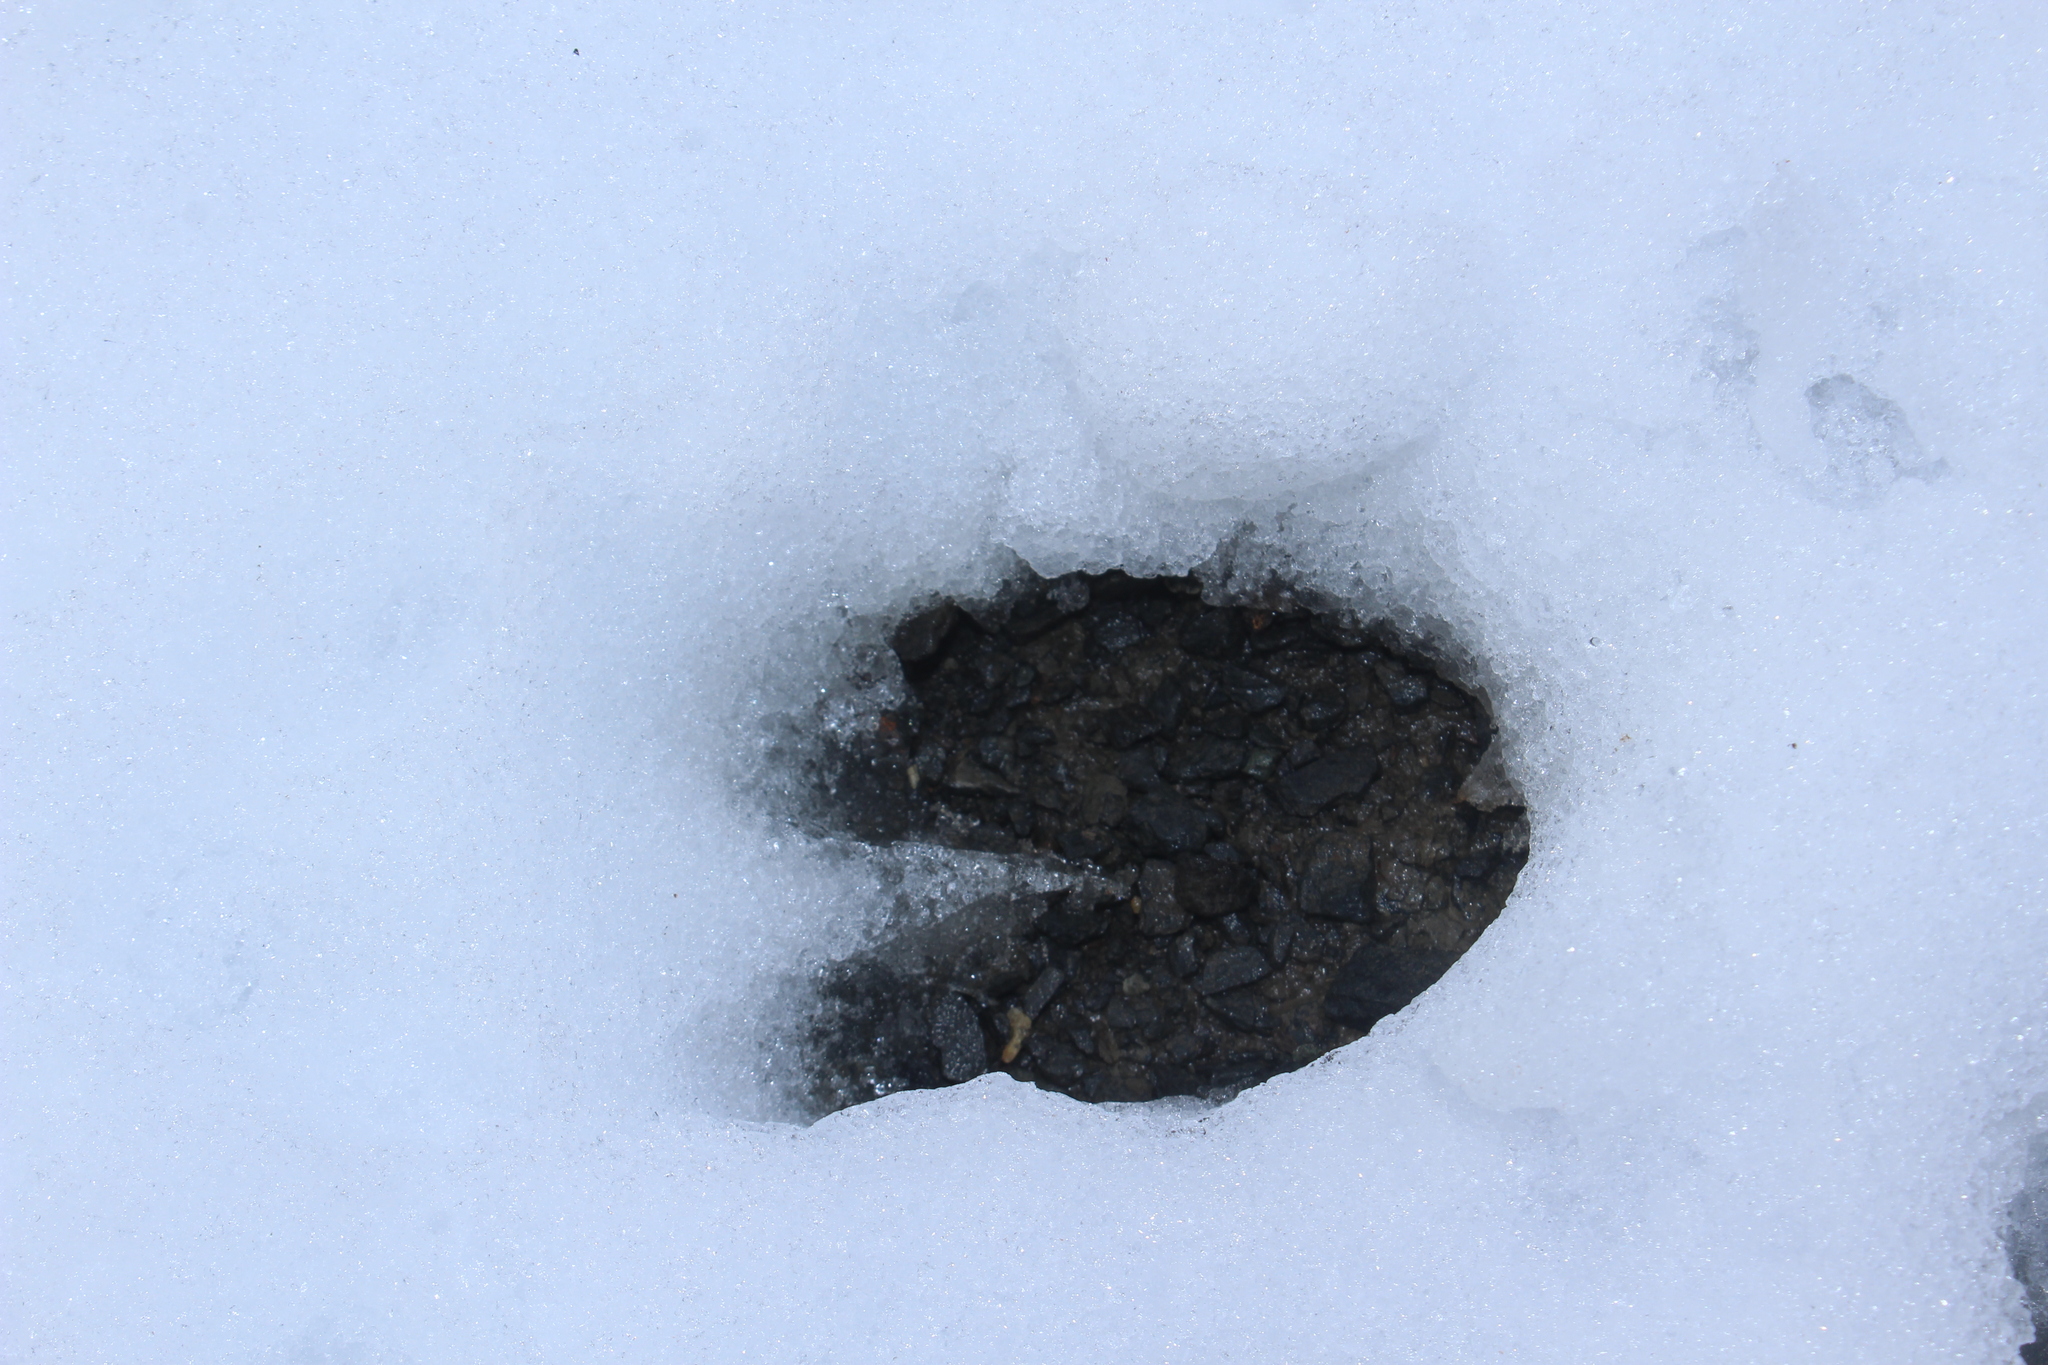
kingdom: Animalia
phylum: Chordata
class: Mammalia
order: Artiodactyla
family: Cervidae
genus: Odocoileus
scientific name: Odocoileus virginianus
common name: White-tailed deer
